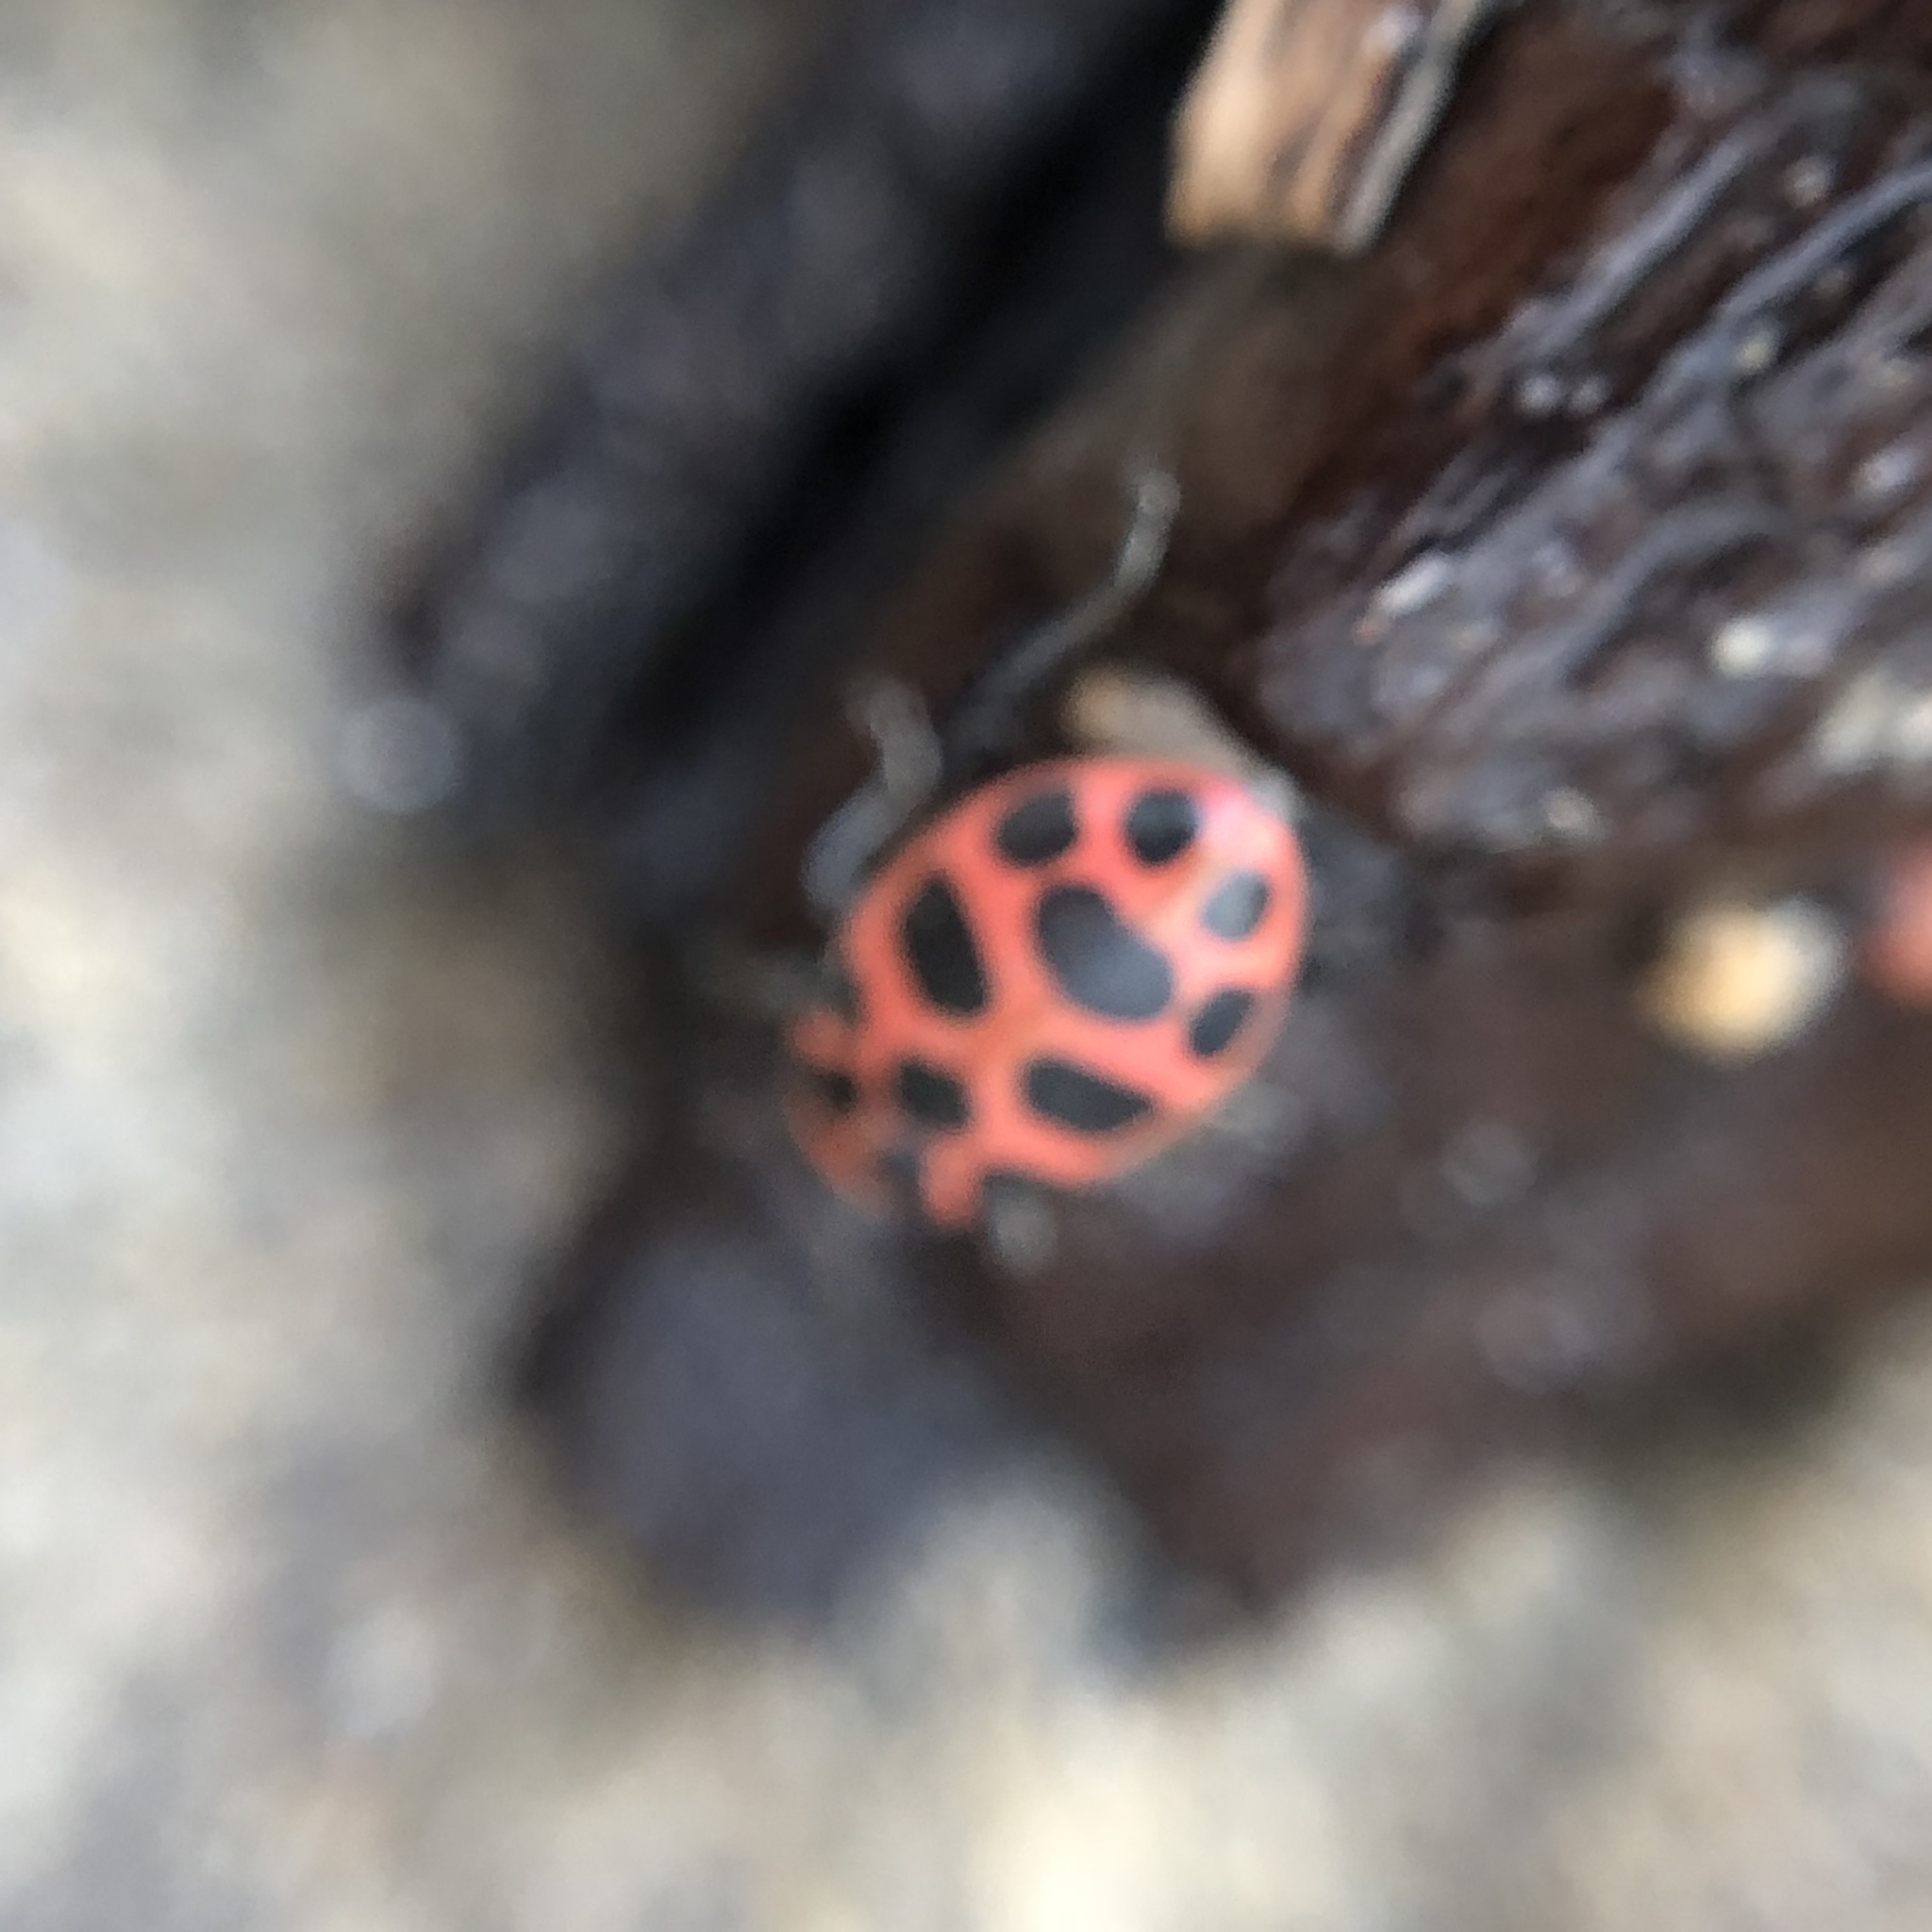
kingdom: Animalia
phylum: Arthropoda
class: Insecta
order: Coleoptera
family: Coccinellidae
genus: Coleomegilla
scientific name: Coleomegilla maculata
